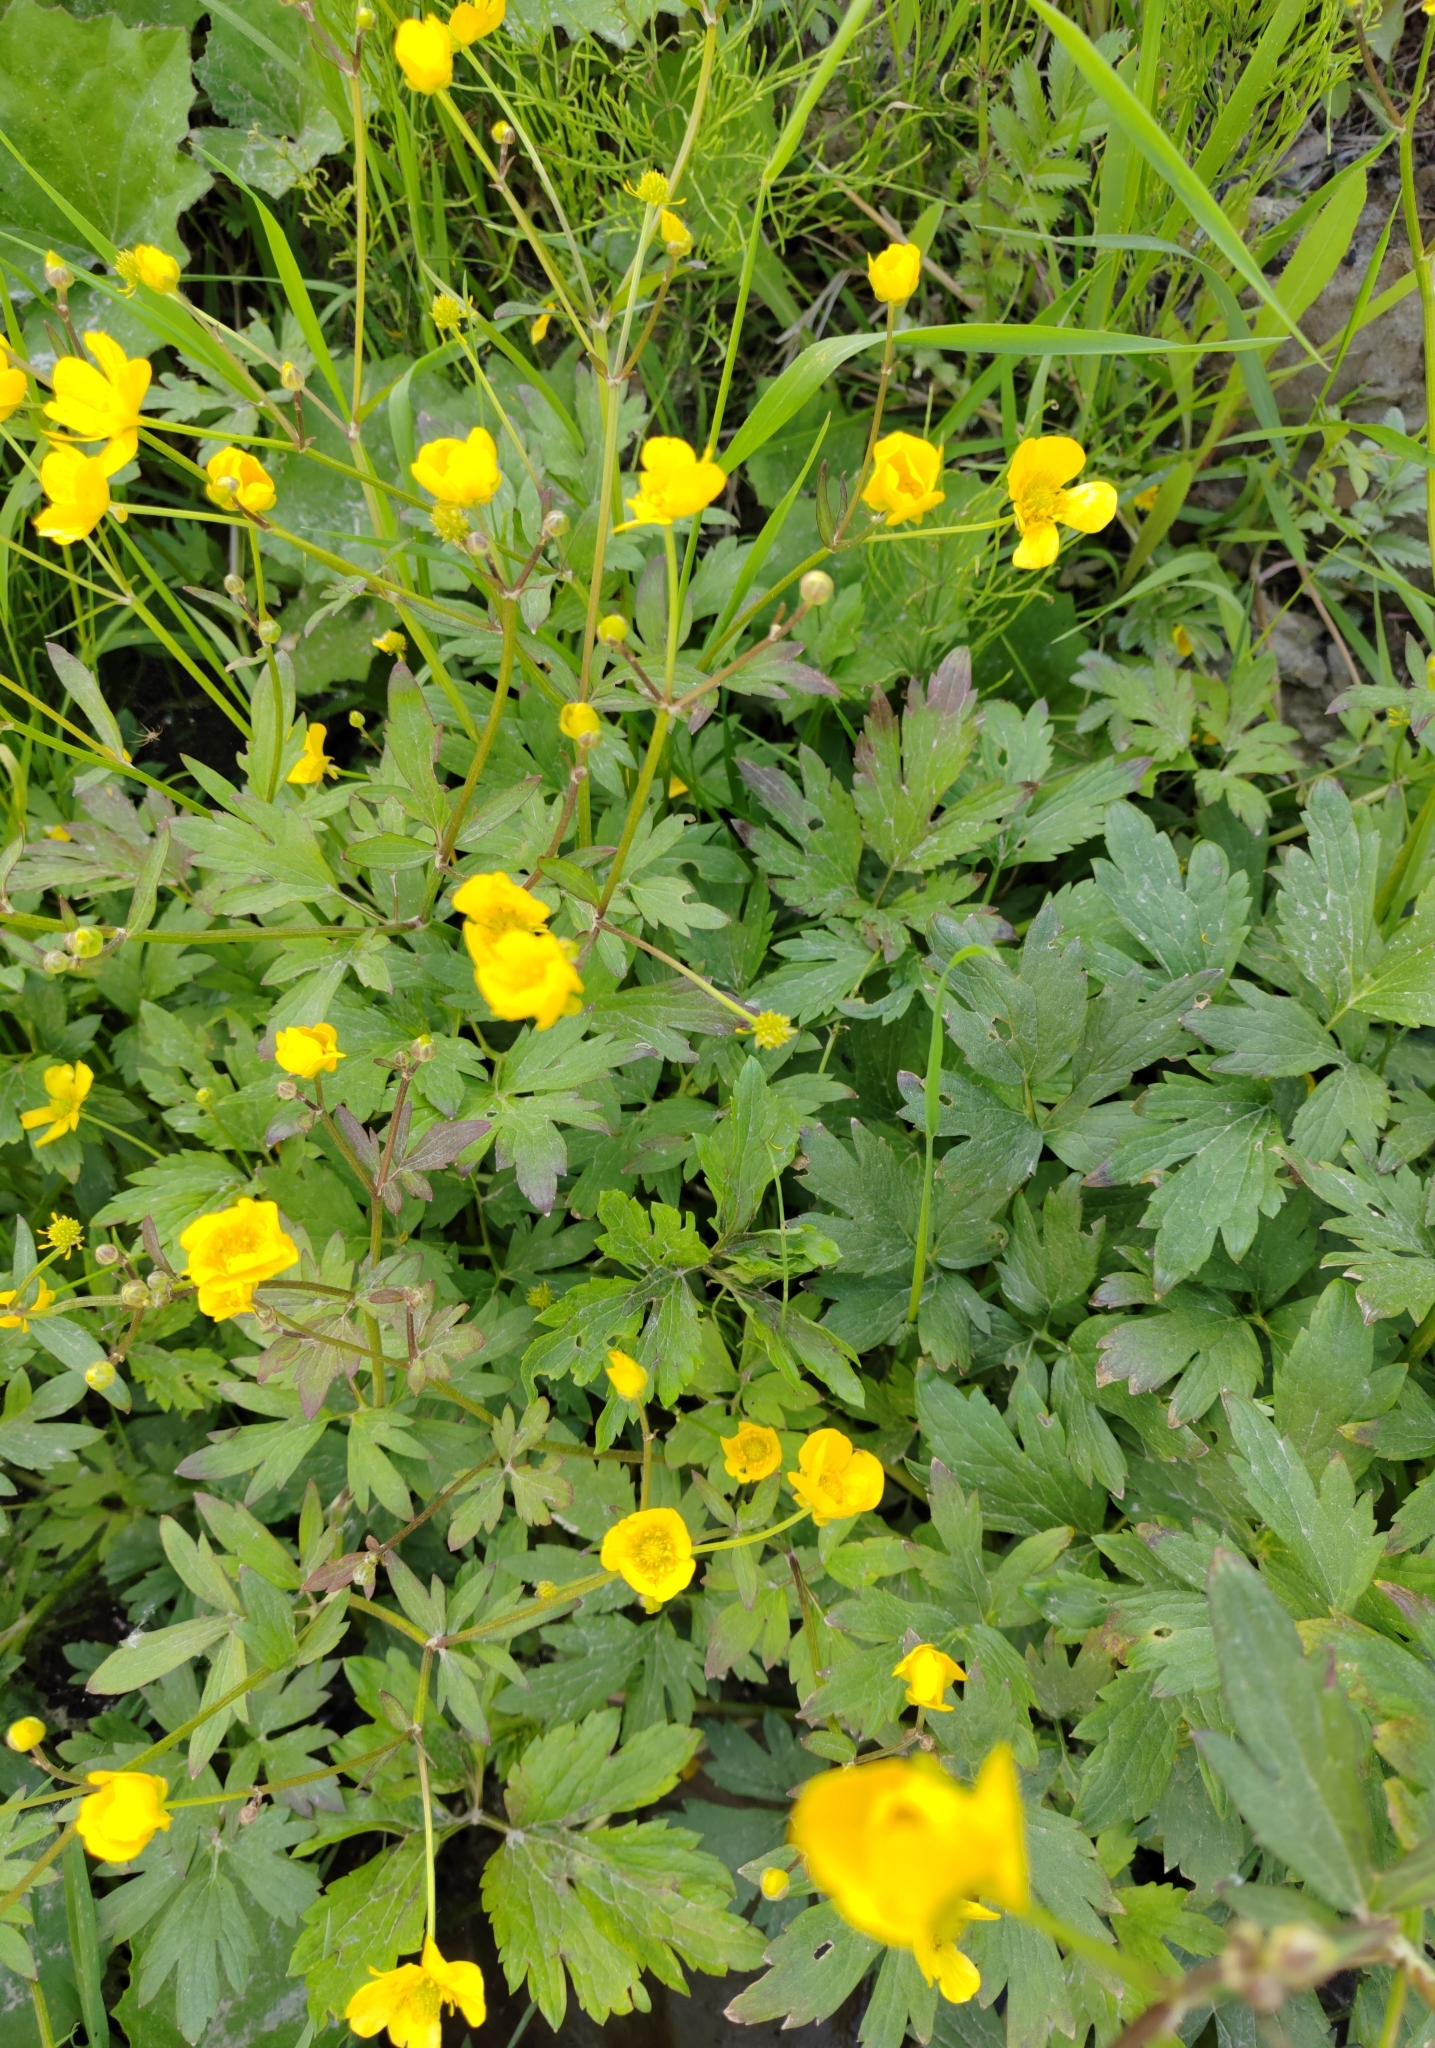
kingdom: Plantae
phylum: Tracheophyta
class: Magnoliopsida
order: Ranunculales
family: Ranunculaceae
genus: Ranunculus
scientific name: Ranunculus repens
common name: Creeping buttercup
